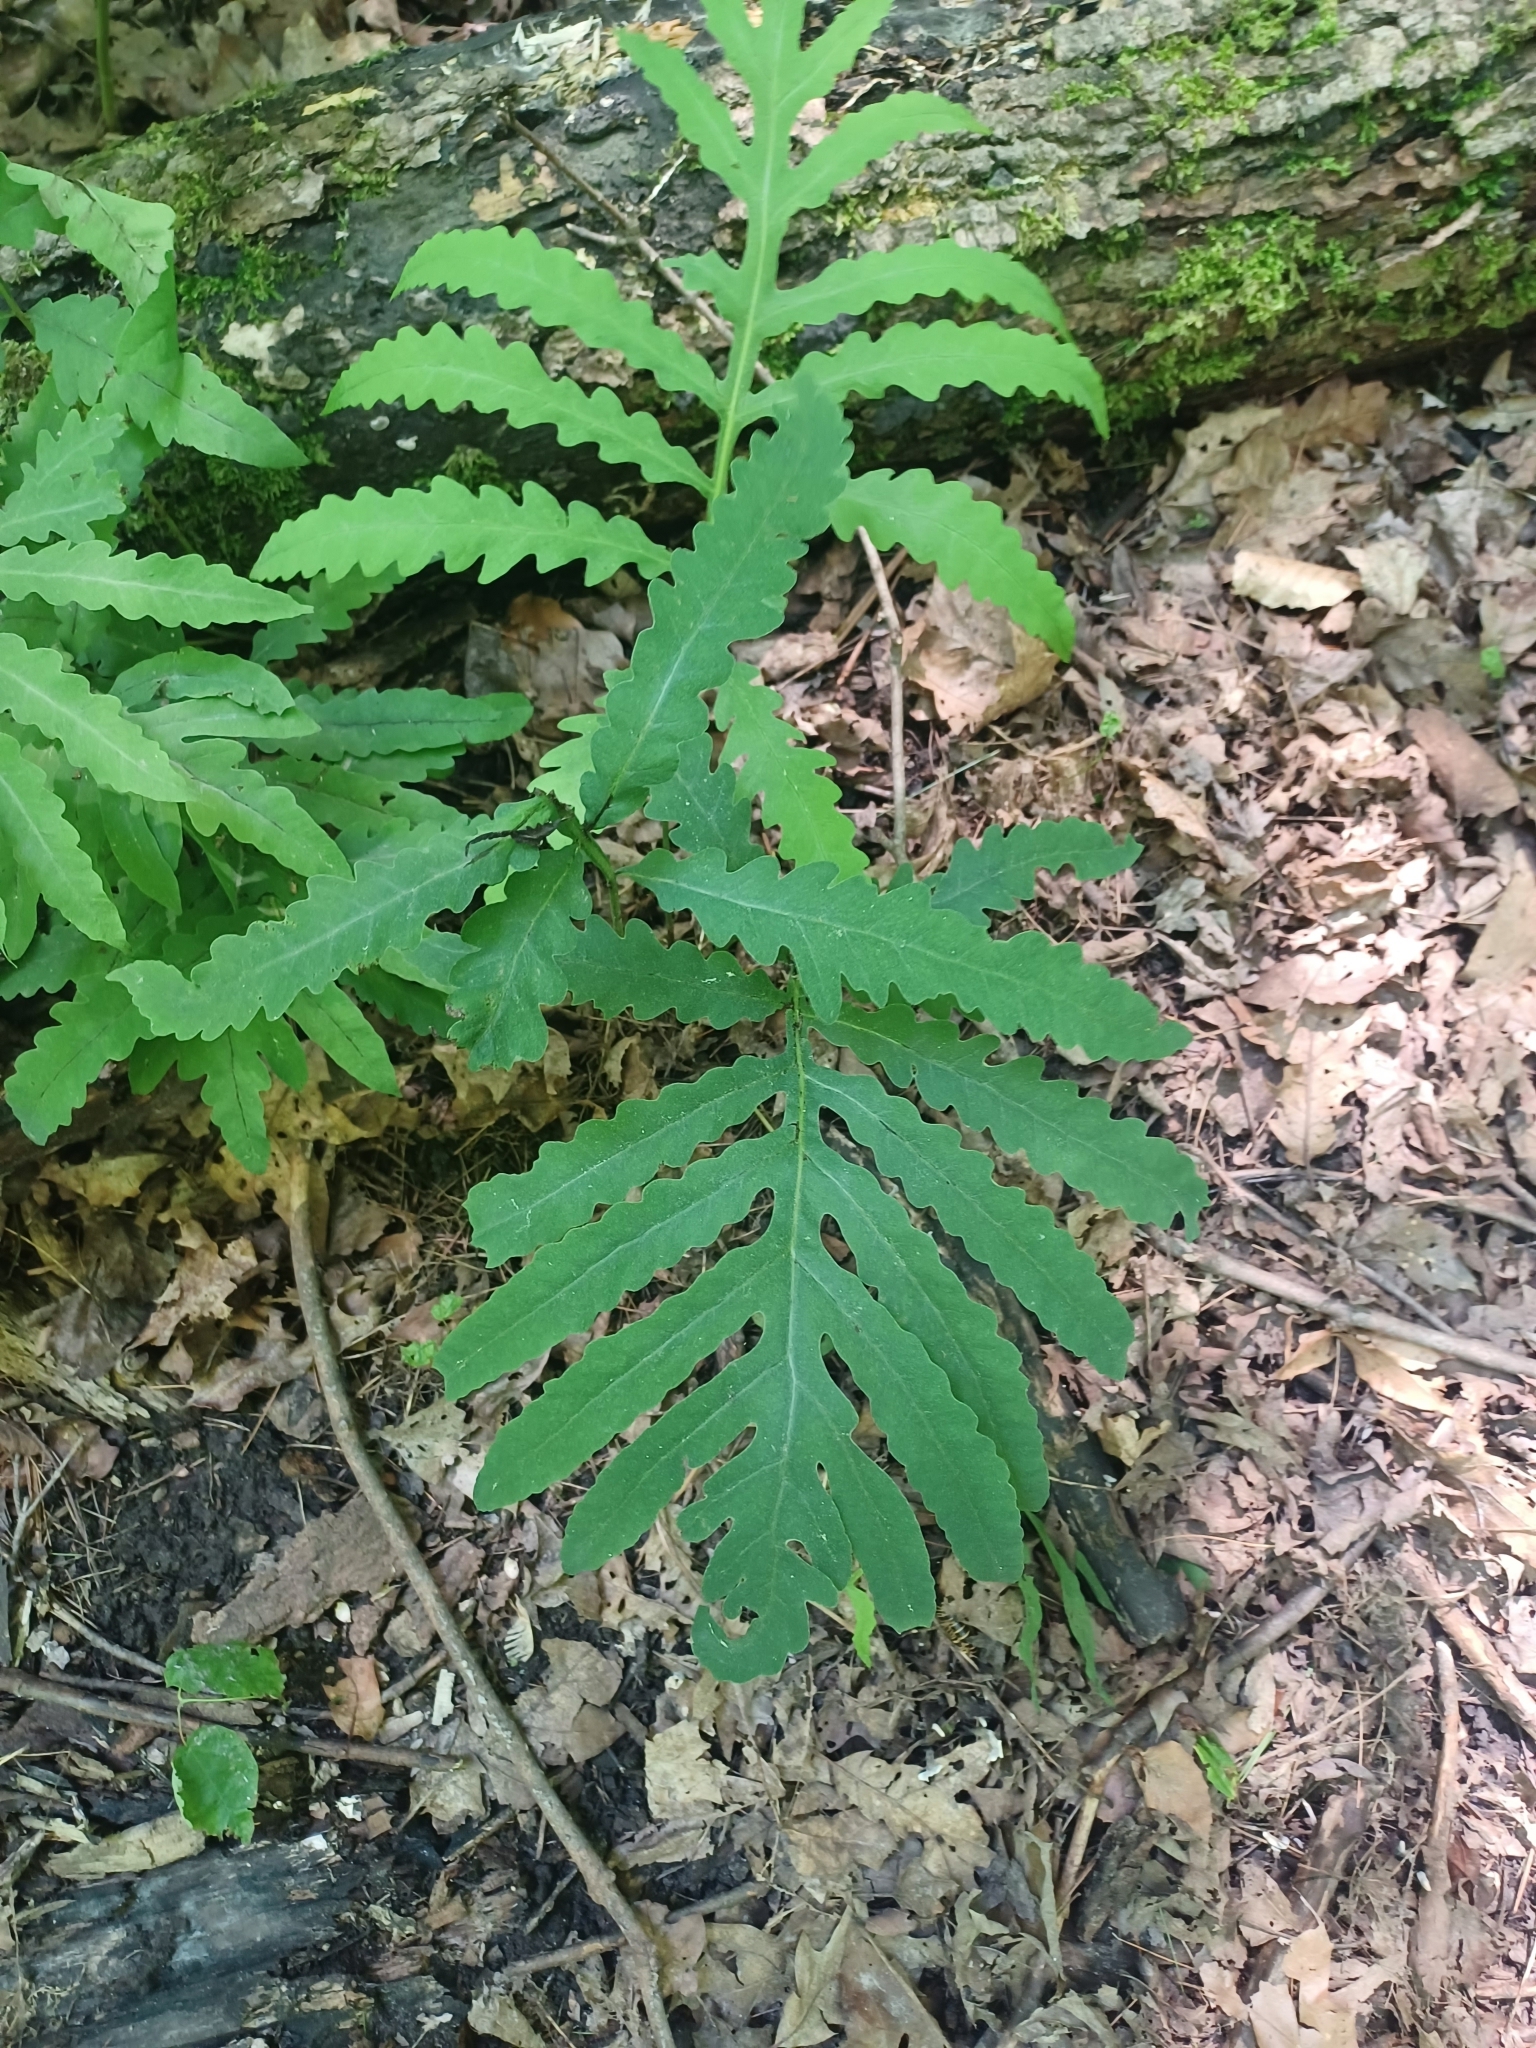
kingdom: Plantae
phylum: Tracheophyta
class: Polypodiopsida
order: Polypodiales
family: Onocleaceae
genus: Onoclea
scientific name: Onoclea sensibilis
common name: Sensitive fern
